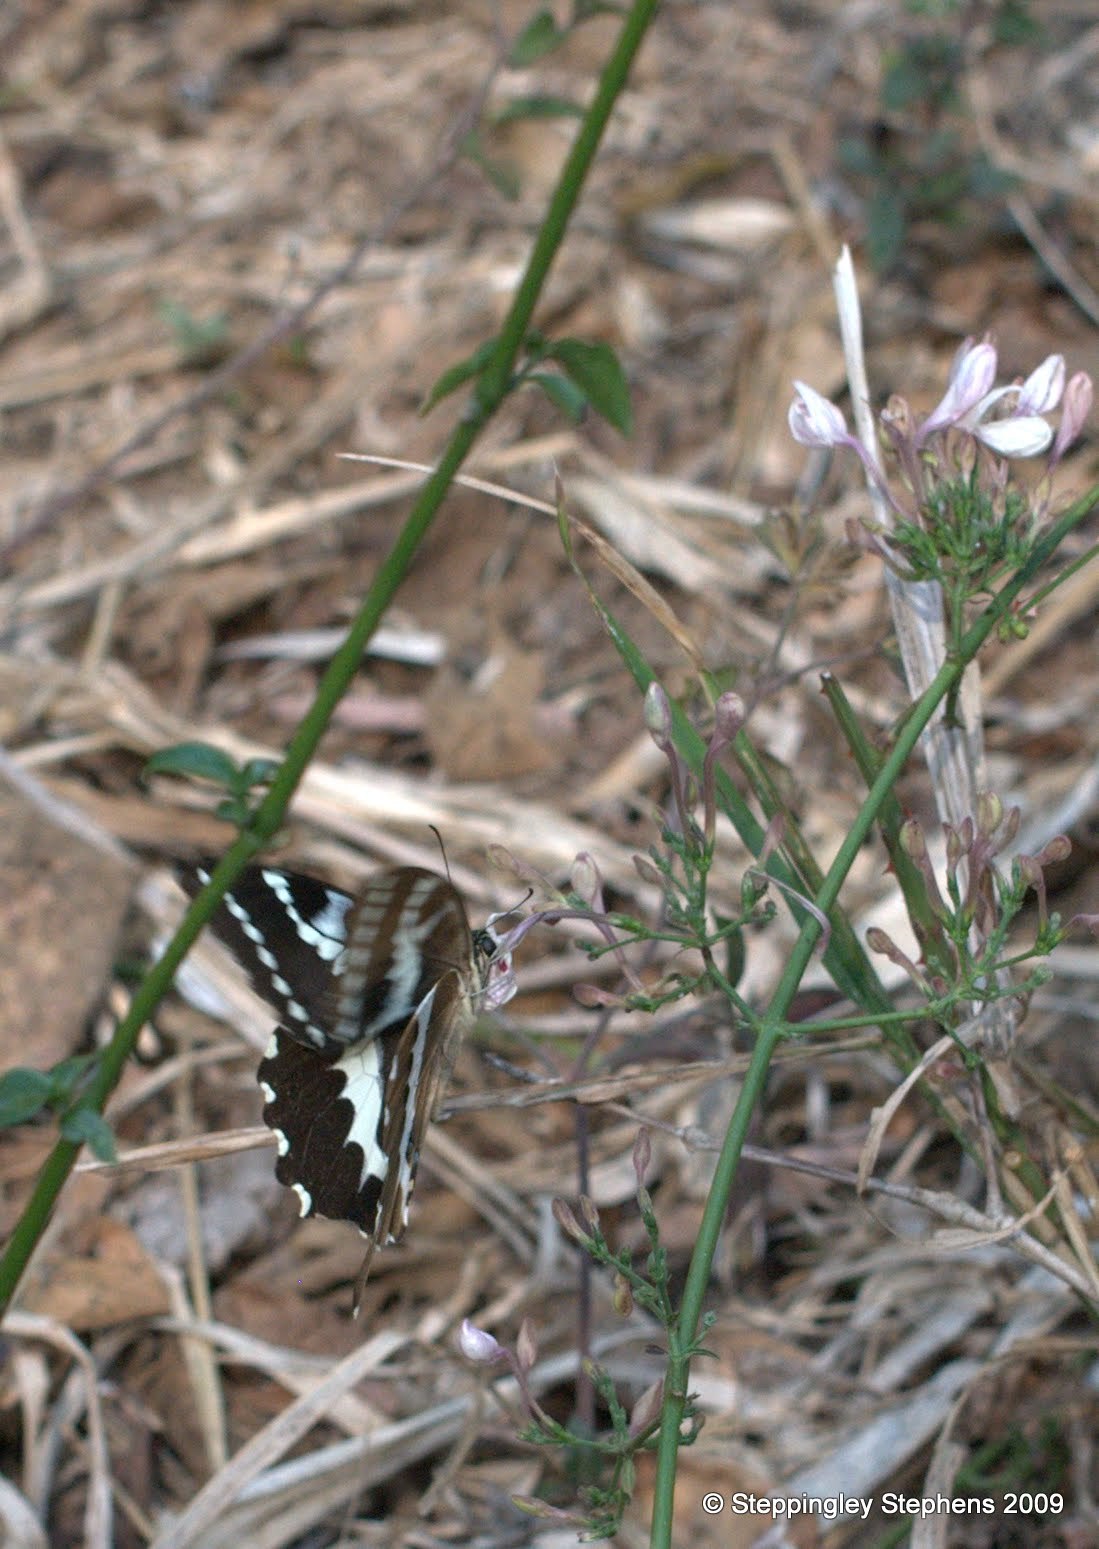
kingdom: Animalia
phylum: Arthropoda
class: Insecta
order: Lepidoptera
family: Papilionidae
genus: Papilio
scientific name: Papilio delalandei
